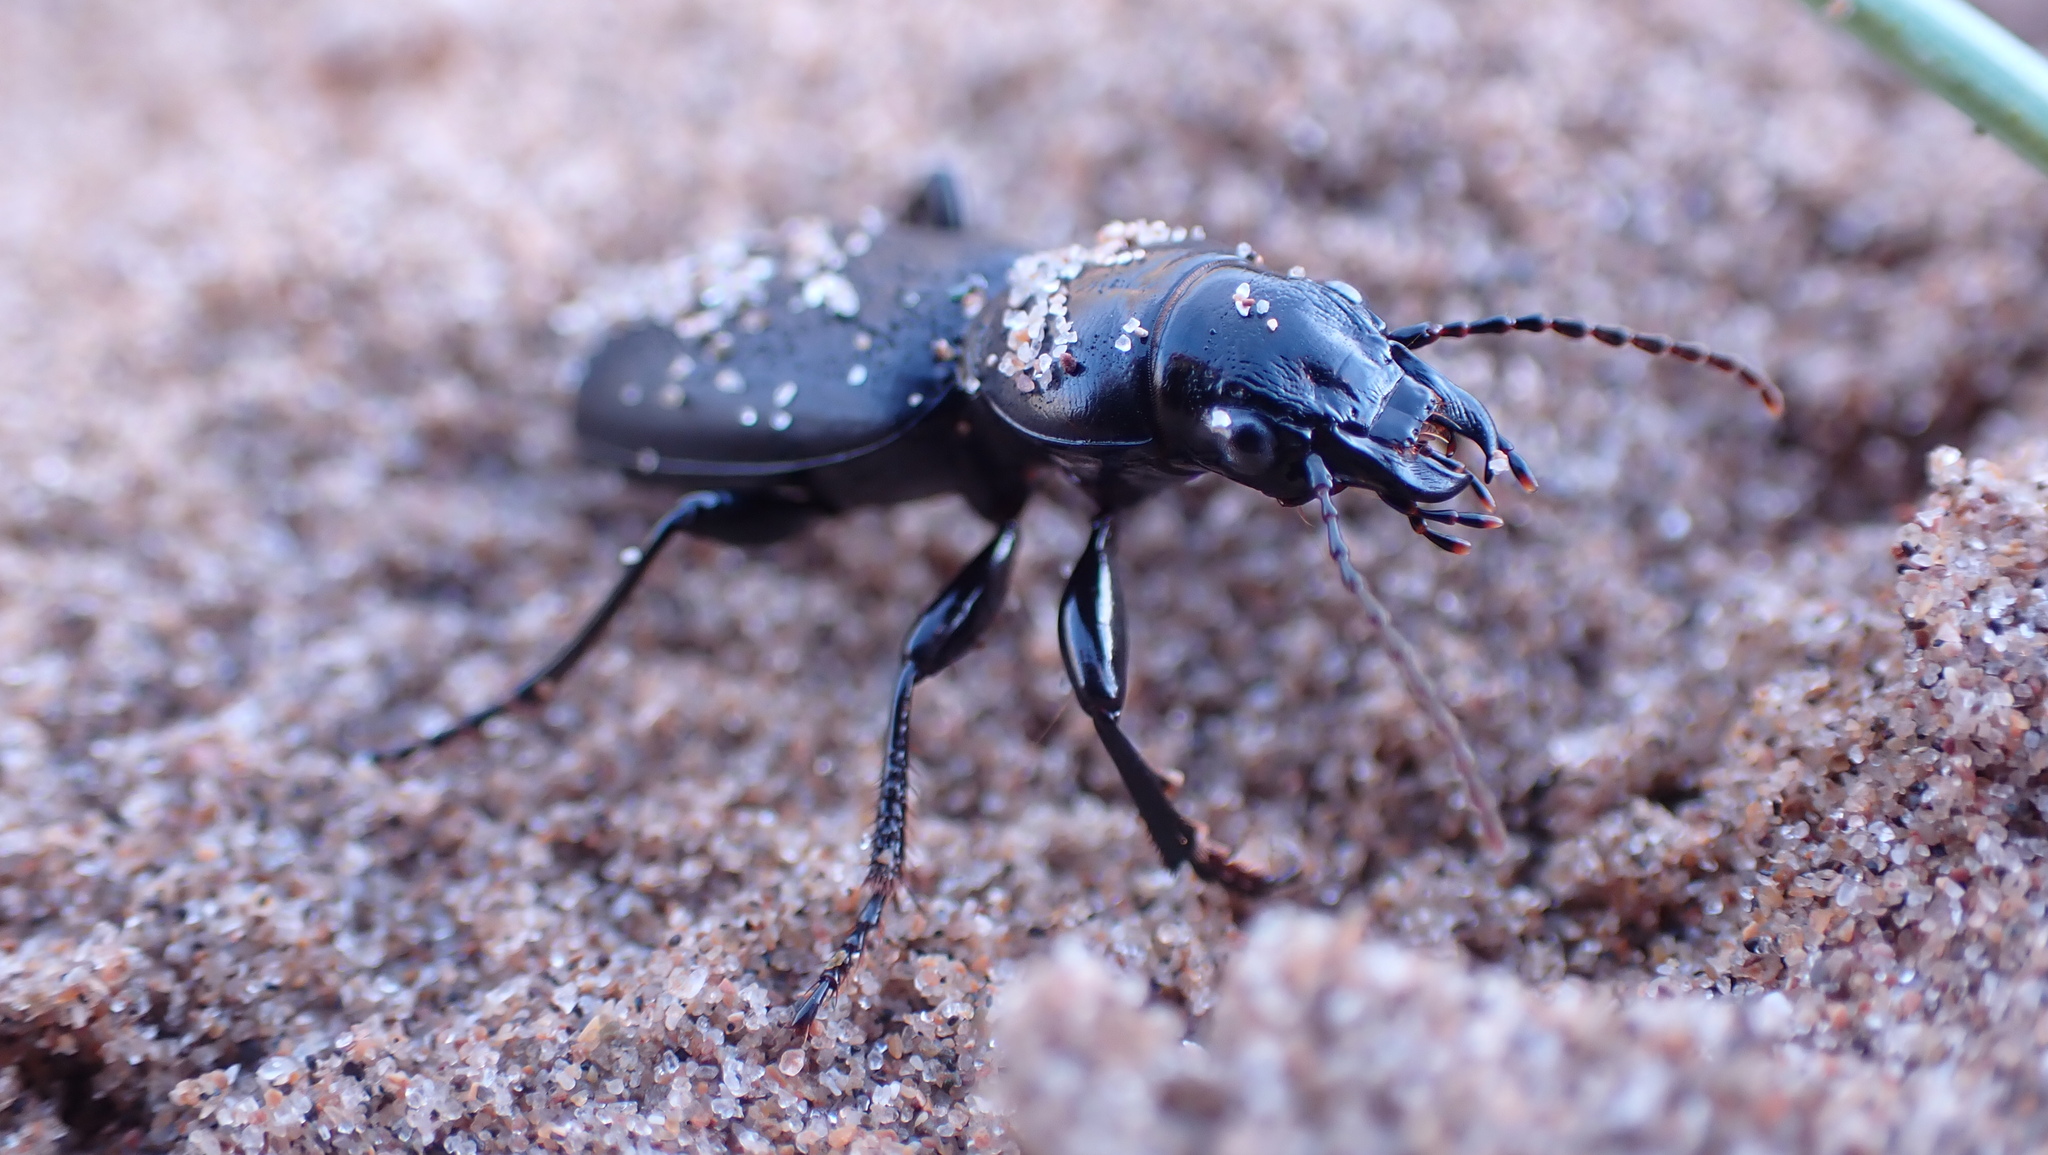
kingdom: Animalia
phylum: Arthropoda
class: Insecta
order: Coleoptera
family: Carabidae
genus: Broscus
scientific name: Broscus cephalotes
